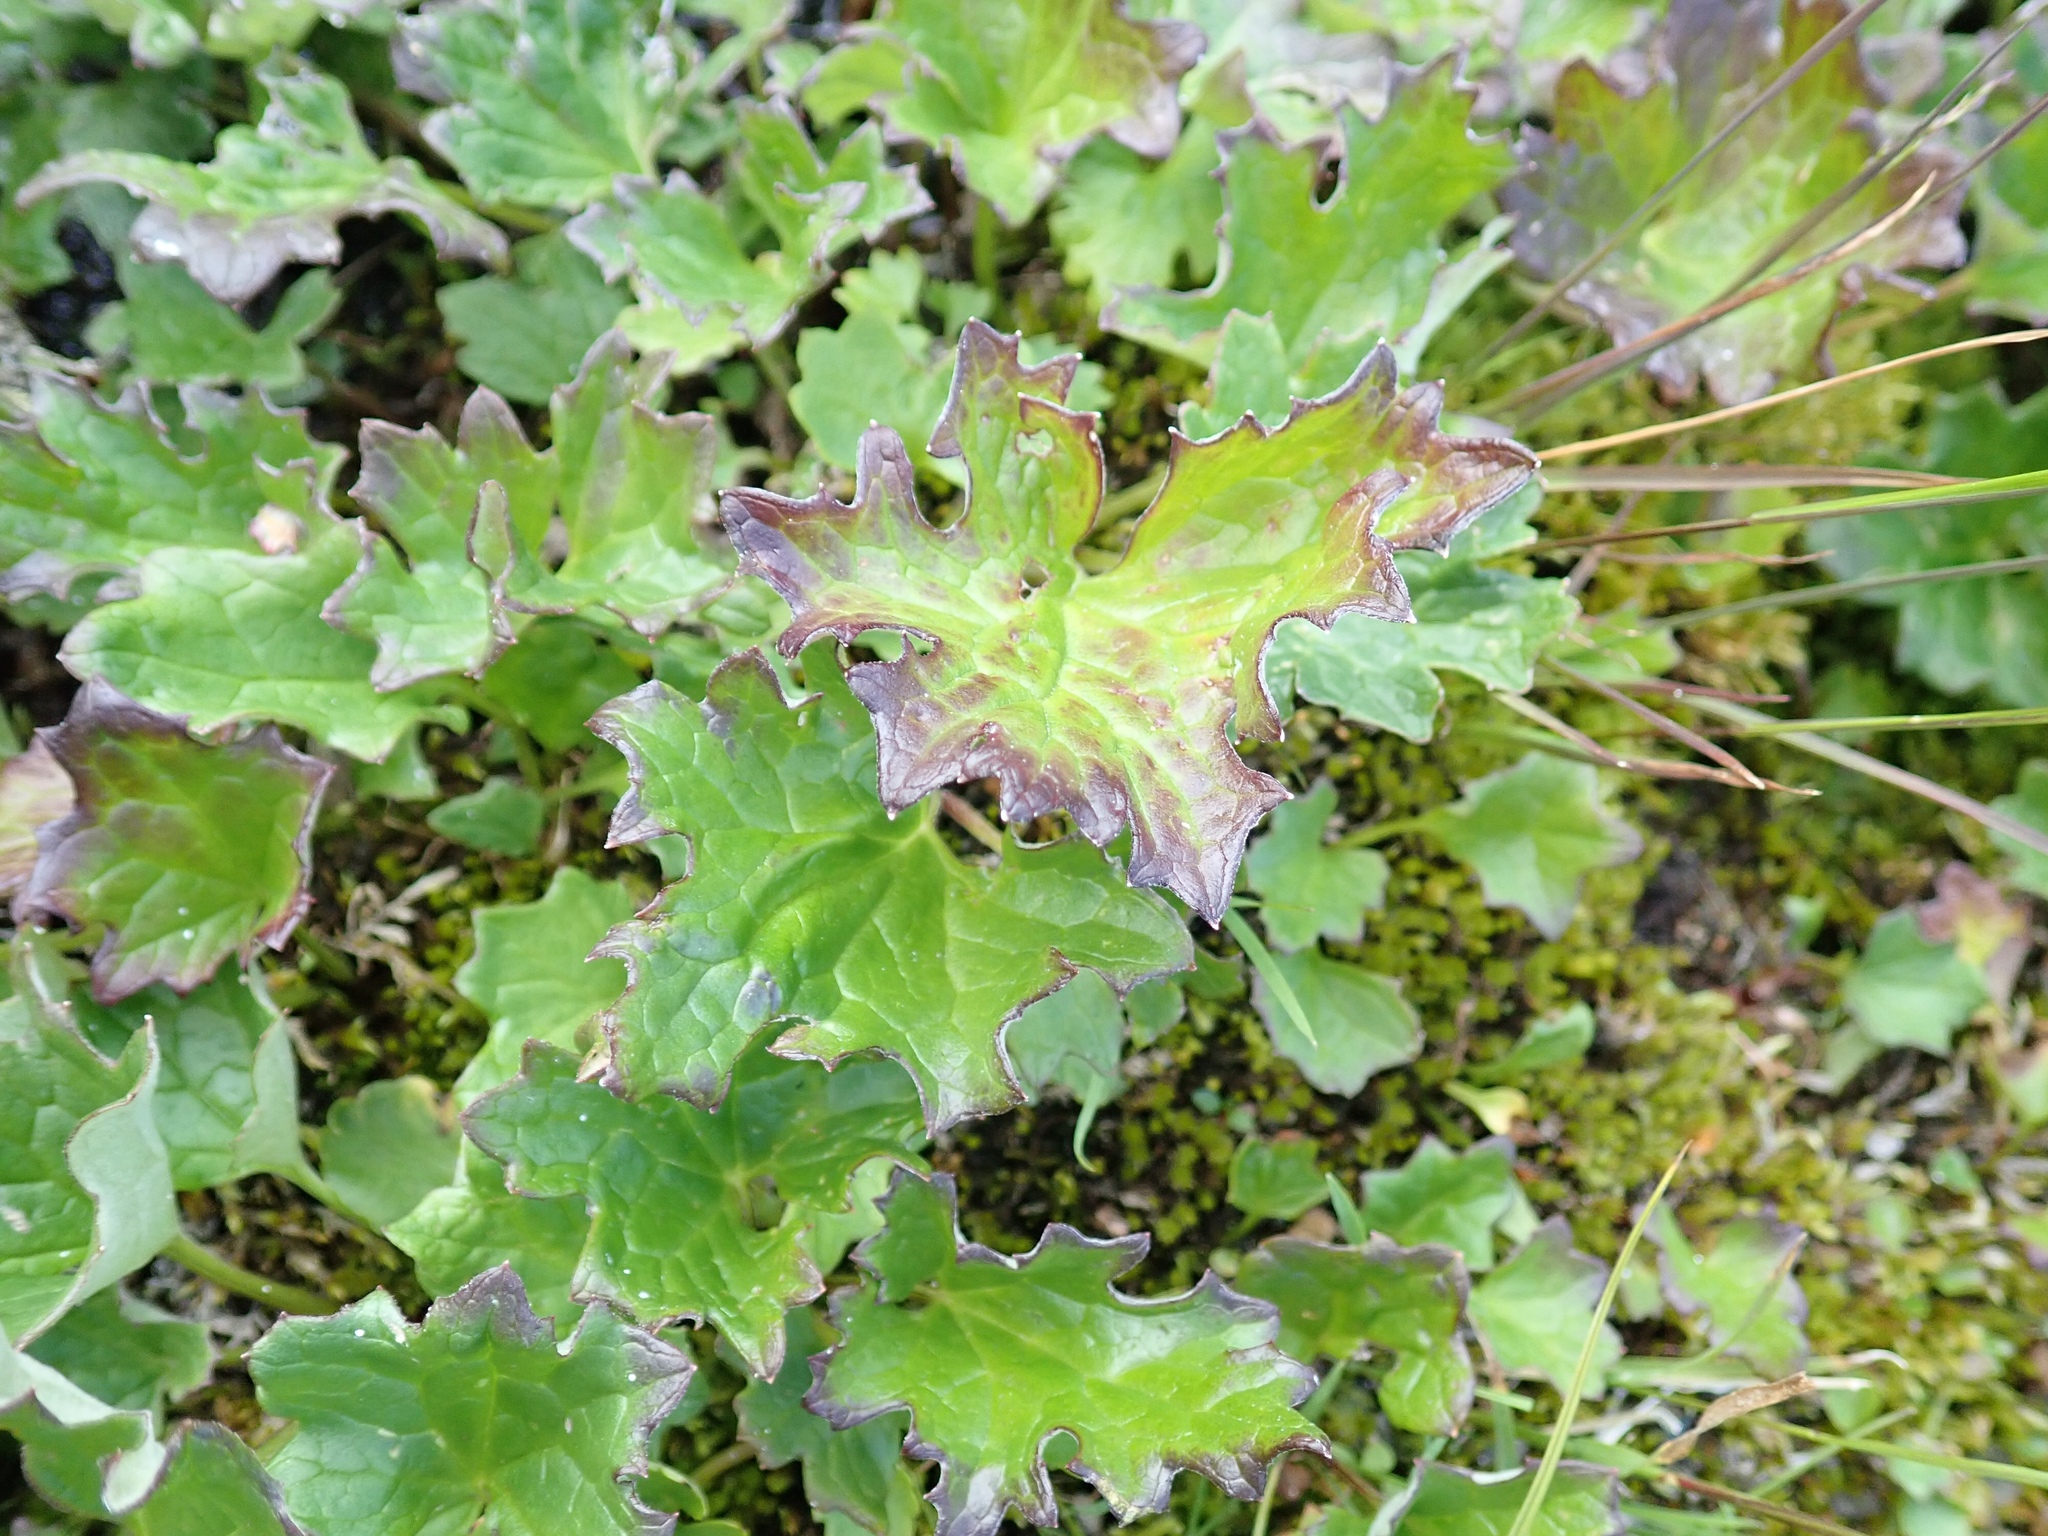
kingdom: Plantae
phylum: Tracheophyta
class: Magnoliopsida
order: Asterales
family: Asteraceae
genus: Petasites
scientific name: Petasites frigidus
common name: Arctic butterbur
